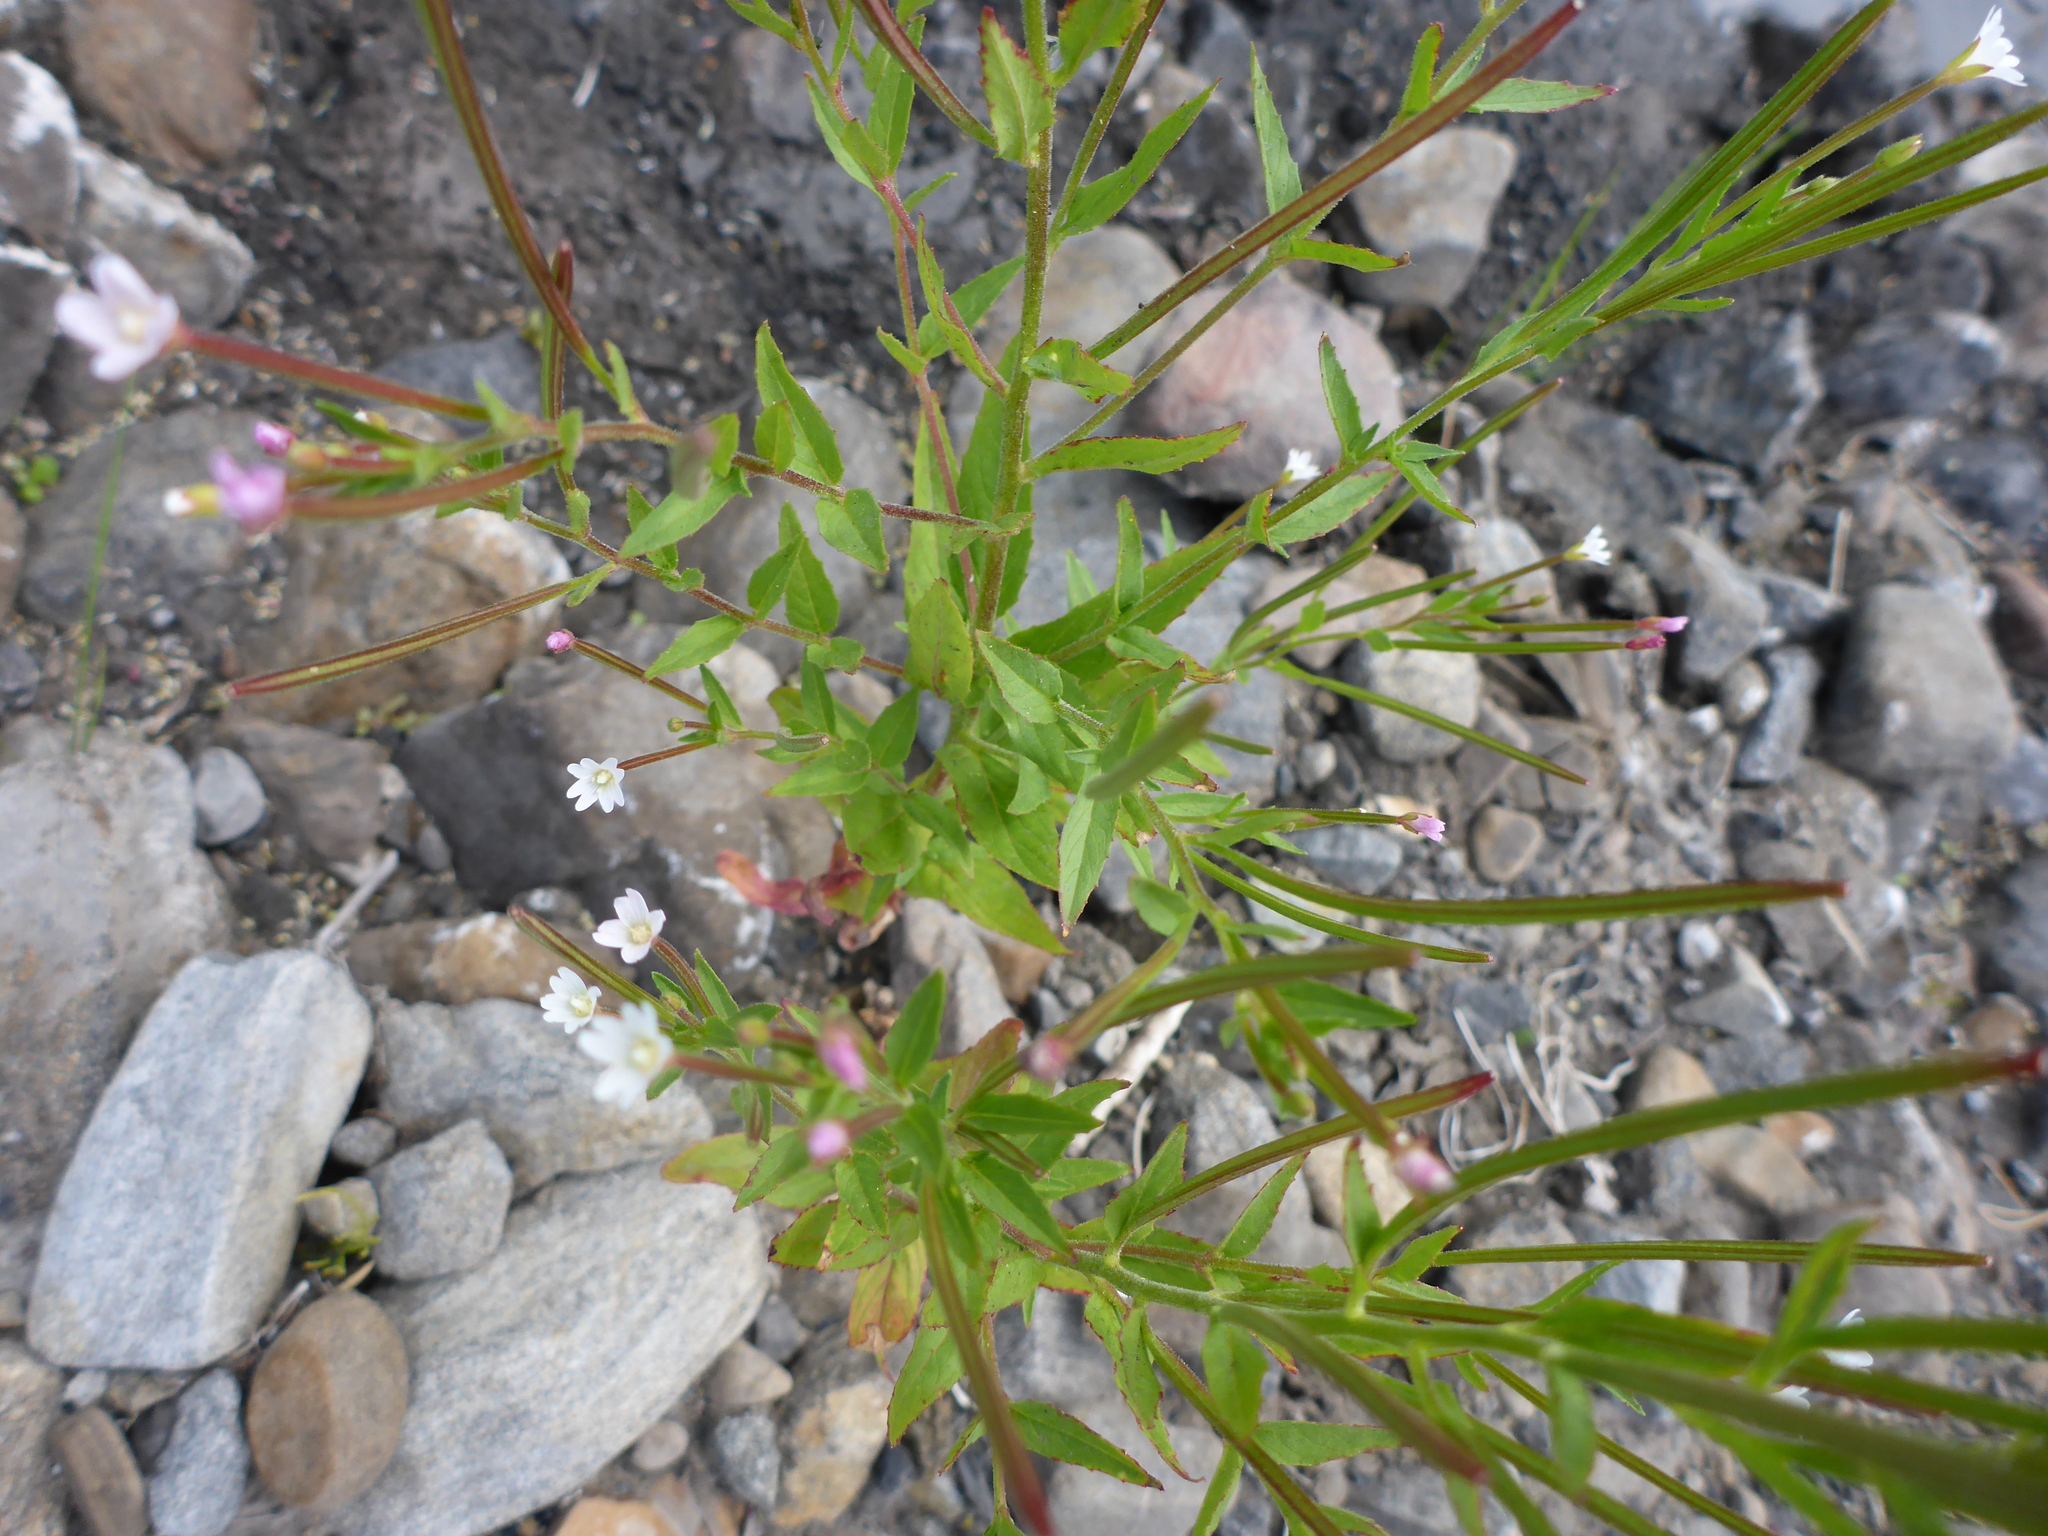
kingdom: Plantae
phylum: Tracheophyta
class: Magnoliopsida
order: Myrtales
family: Onagraceae
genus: Epilobium
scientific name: Epilobium ciliatum
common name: American willowherb
